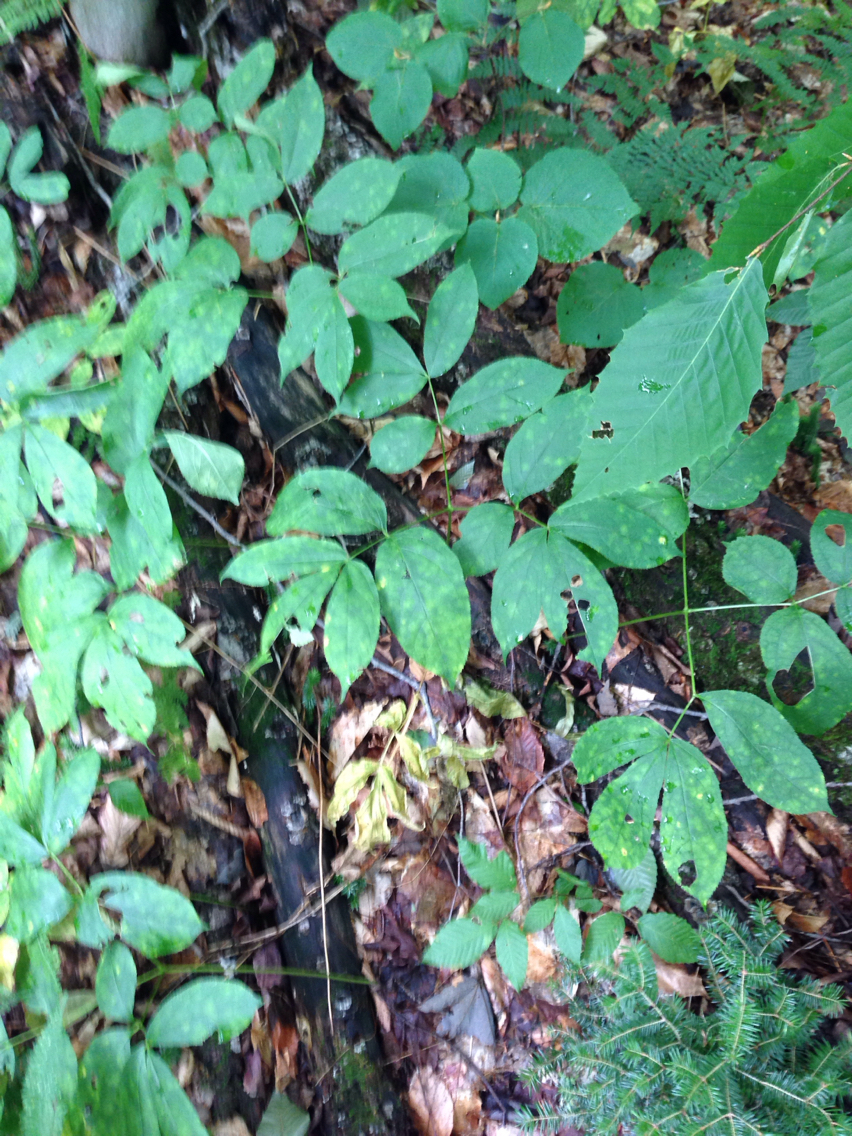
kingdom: Plantae
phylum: Tracheophyta
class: Magnoliopsida
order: Apiales
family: Araliaceae
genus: Aralia
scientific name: Aralia nudicaulis
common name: Wild sarsaparilla
